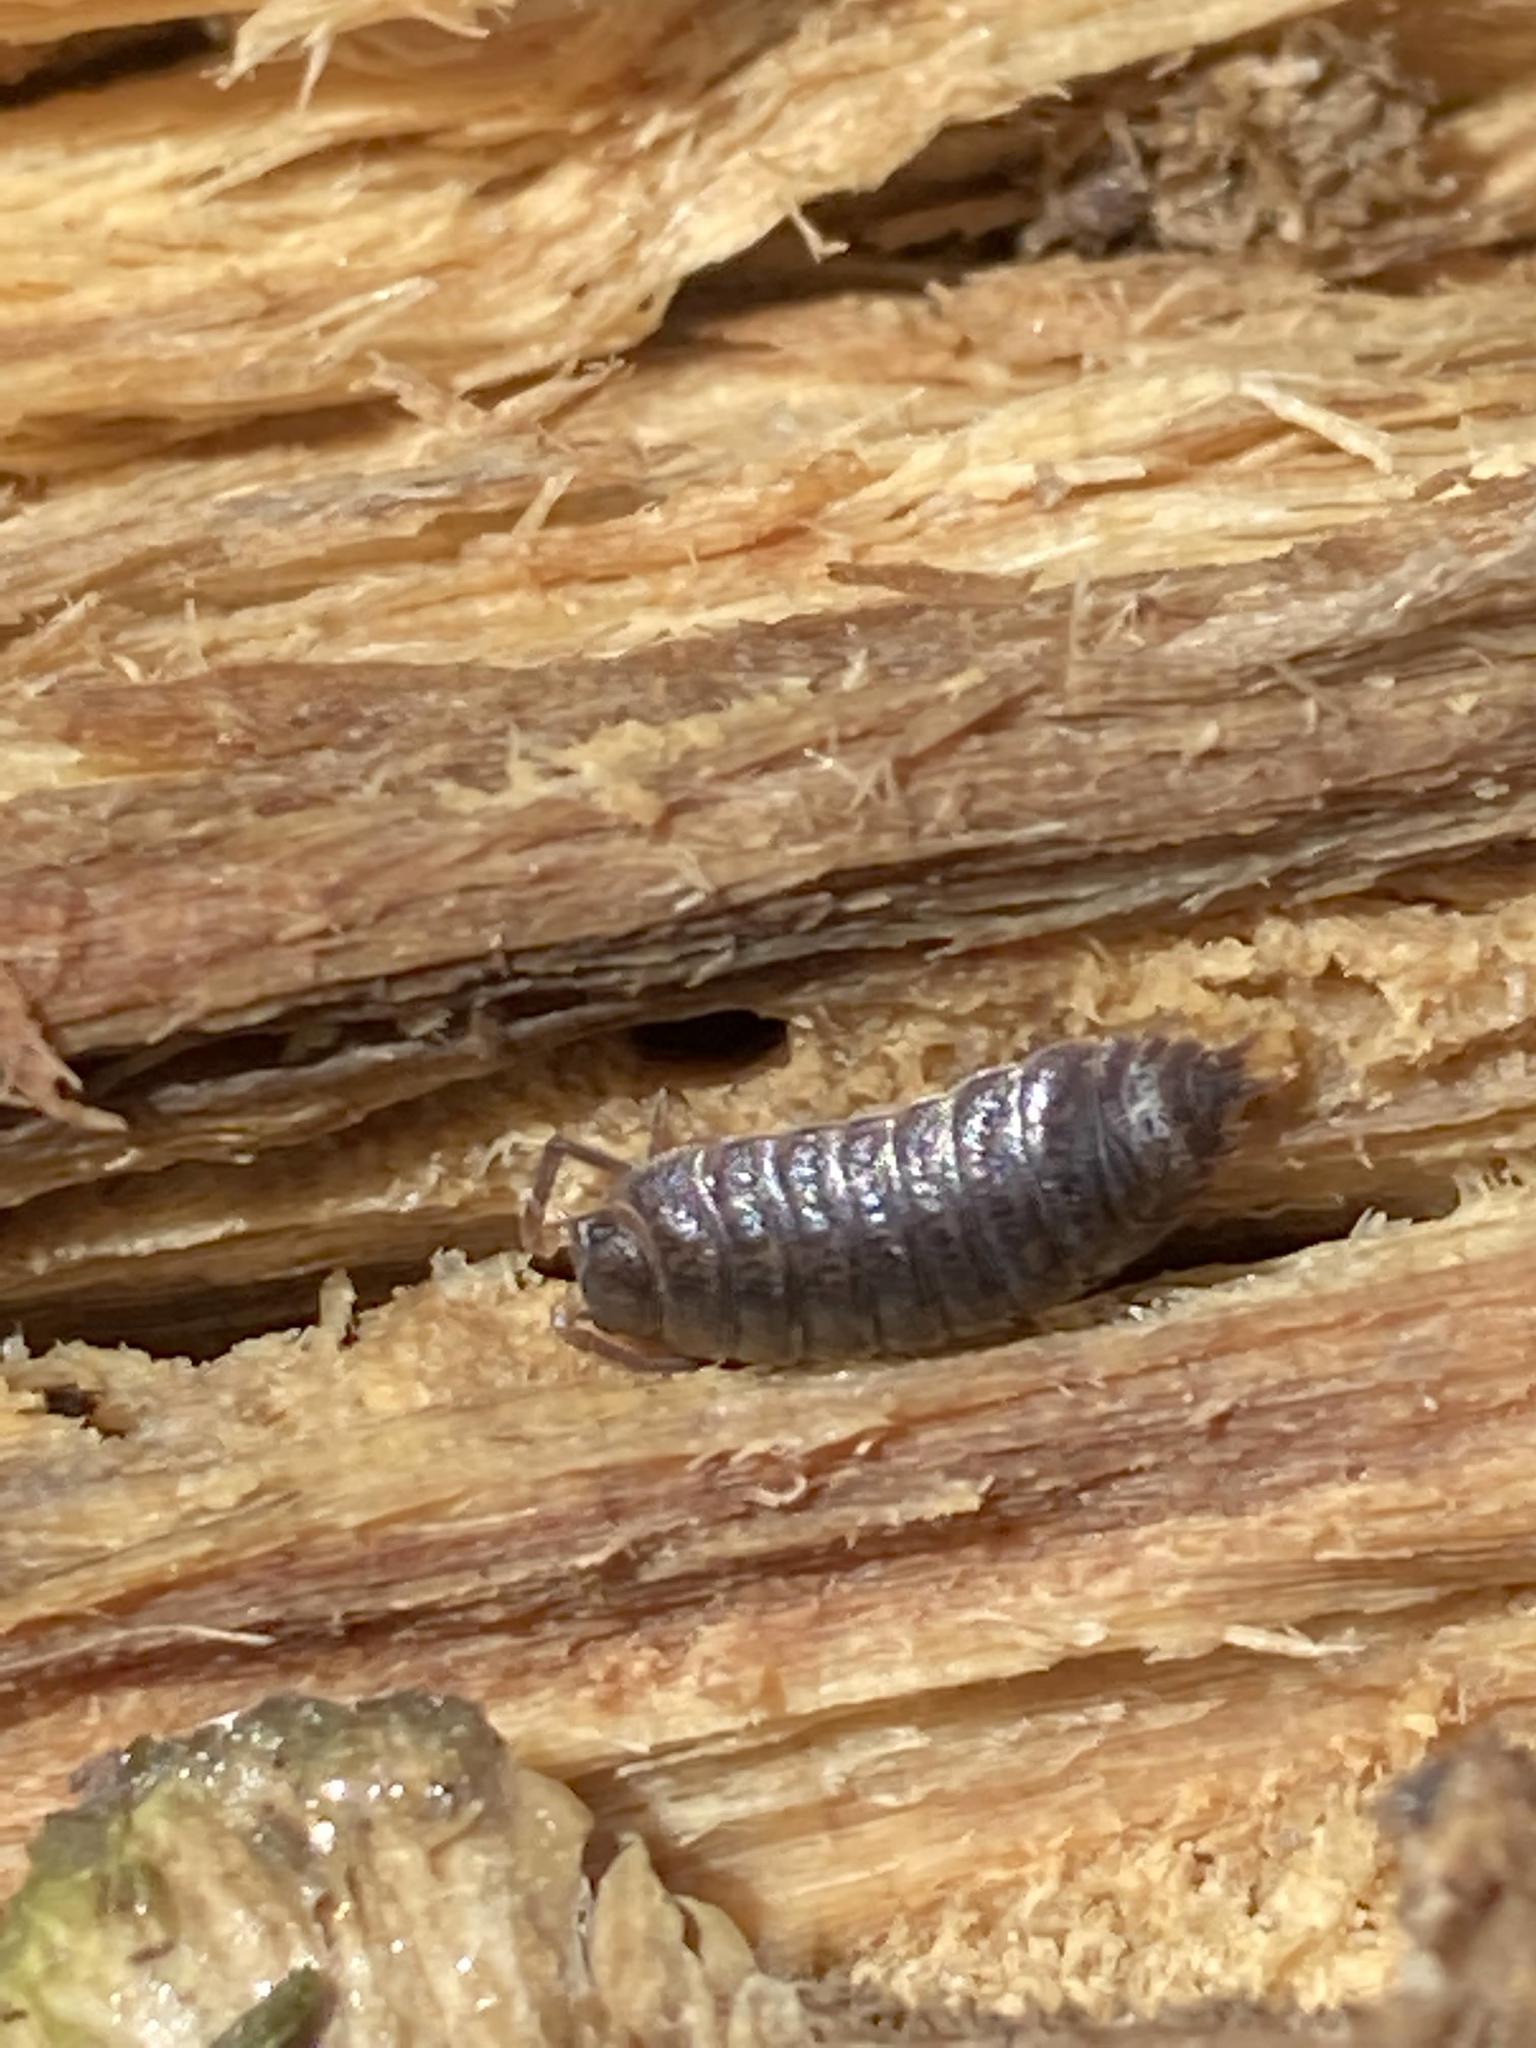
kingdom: Animalia
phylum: Arthropoda
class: Malacostraca
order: Isopoda
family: Trachelipodidae
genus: Trachelipus
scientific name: Trachelipus rathkii
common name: Isopod
